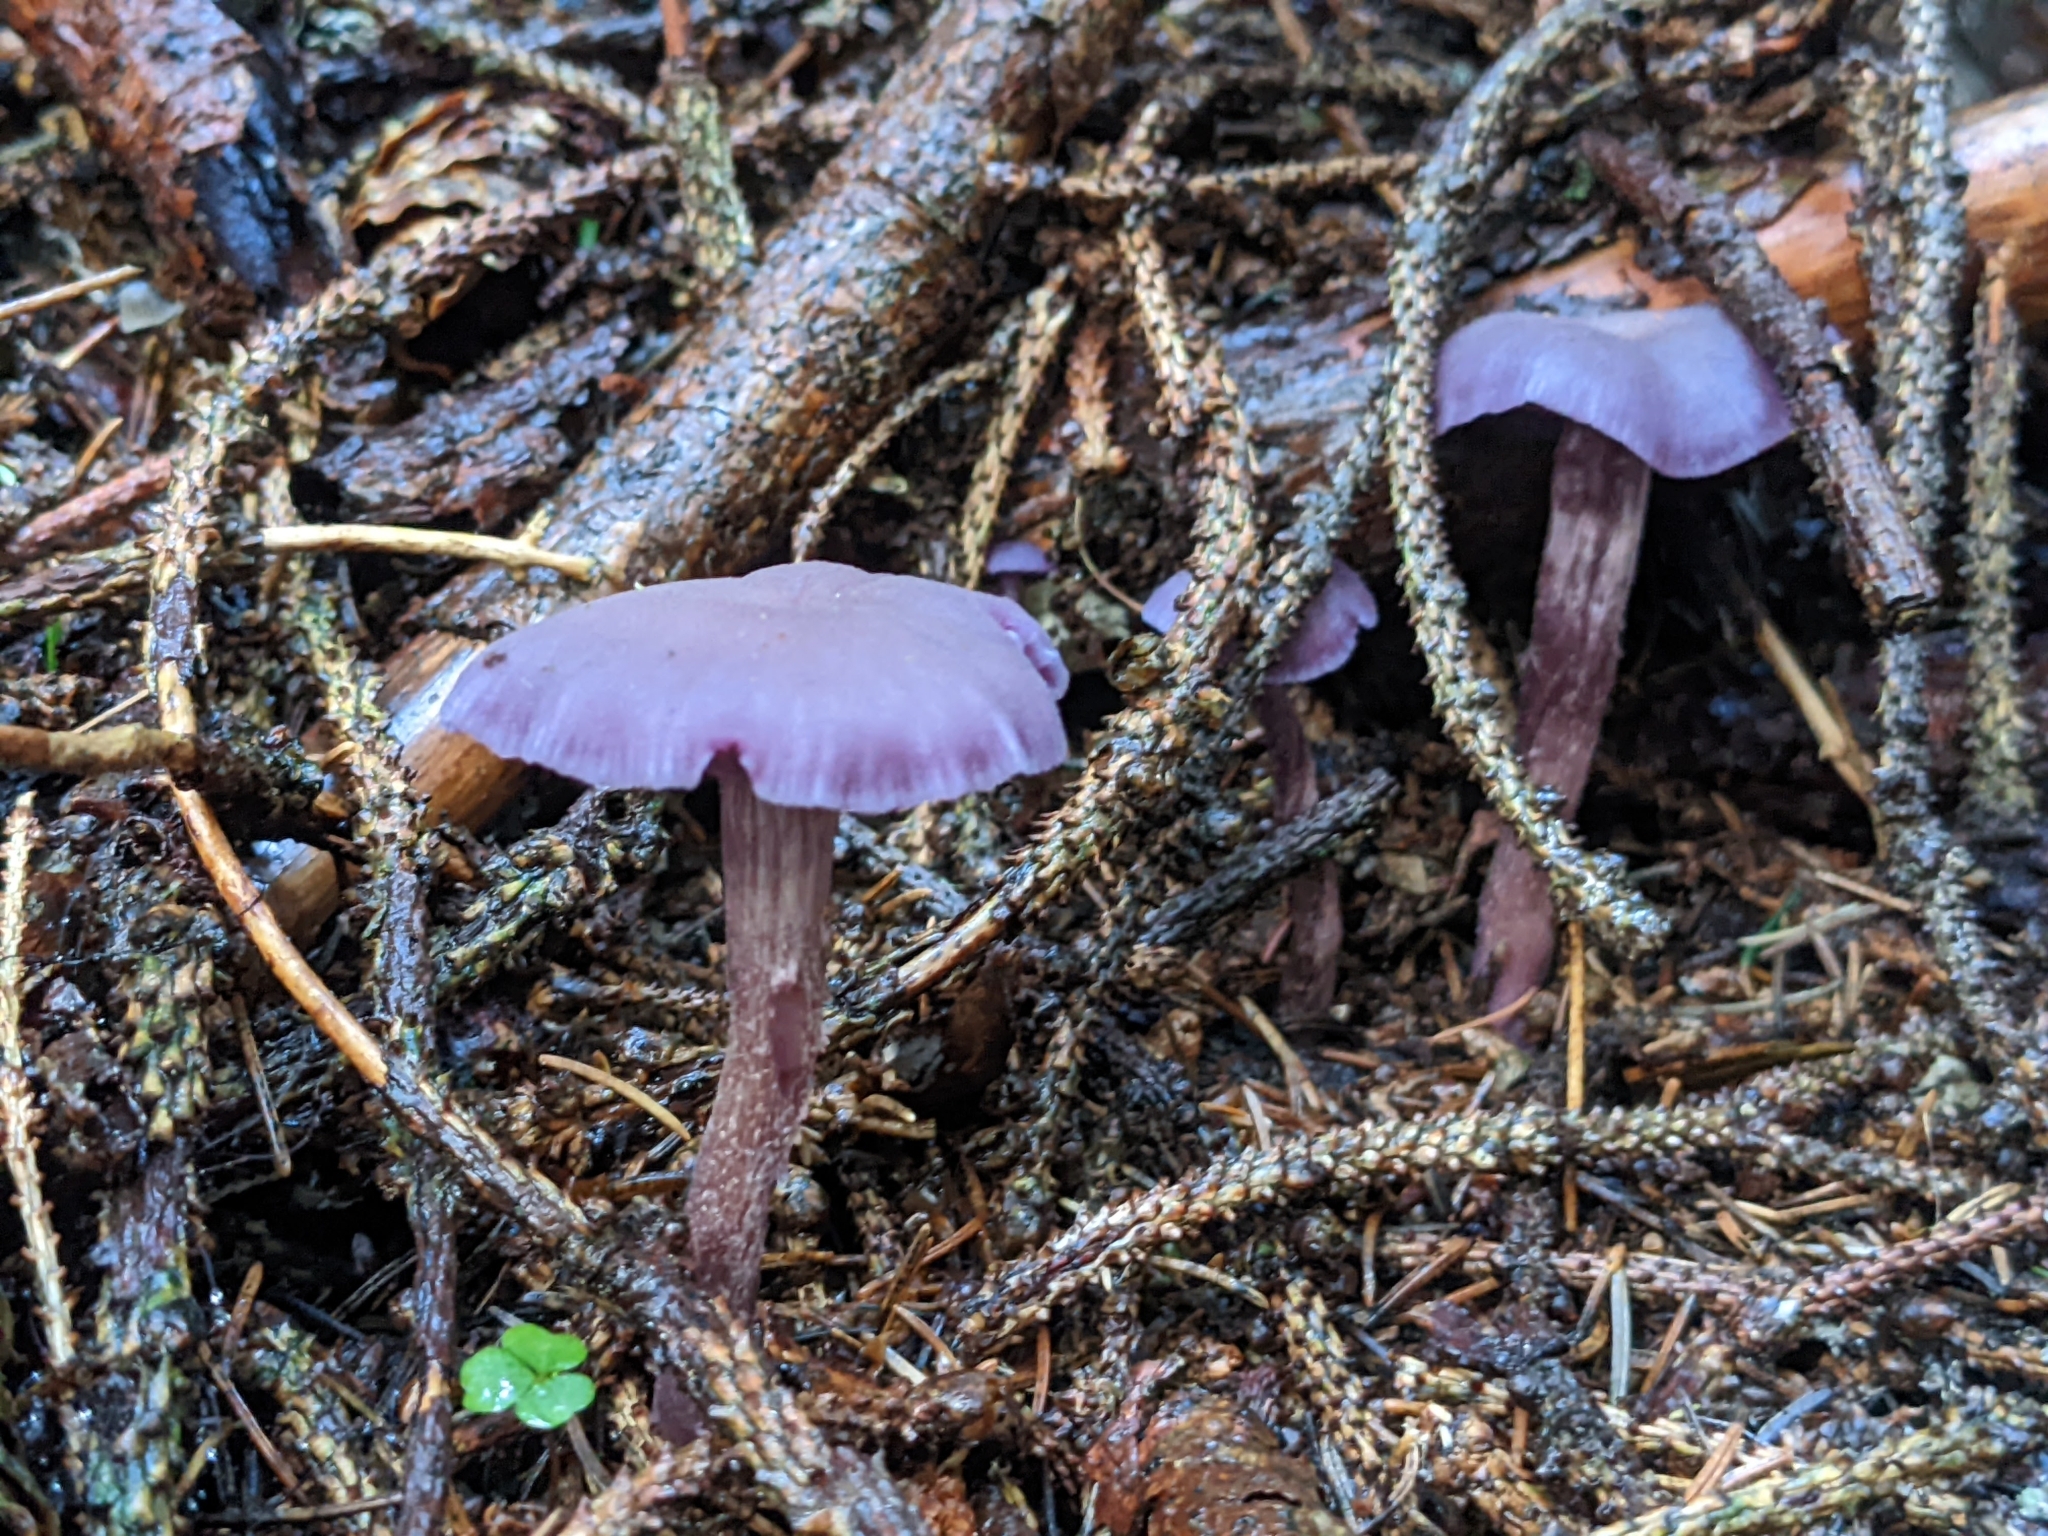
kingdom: Fungi
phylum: Basidiomycota
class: Agaricomycetes
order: Agaricales
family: Hydnangiaceae
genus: Laccaria
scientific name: Laccaria amethystina
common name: Amethyst deceiver
